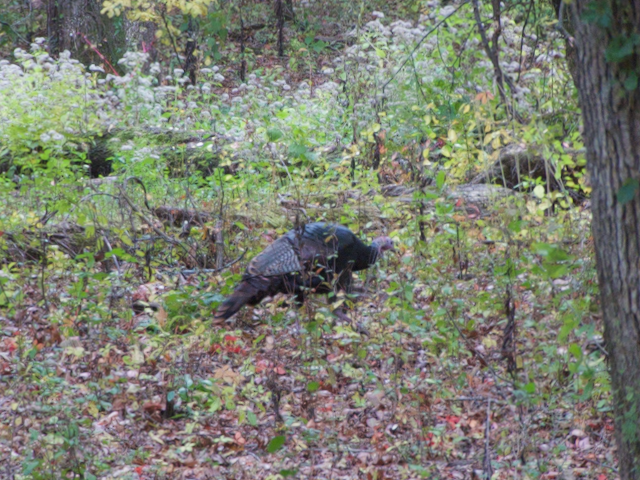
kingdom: Animalia
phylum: Chordata
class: Aves
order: Galliformes
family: Phasianidae
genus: Meleagris
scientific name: Meleagris gallopavo
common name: Wild turkey
